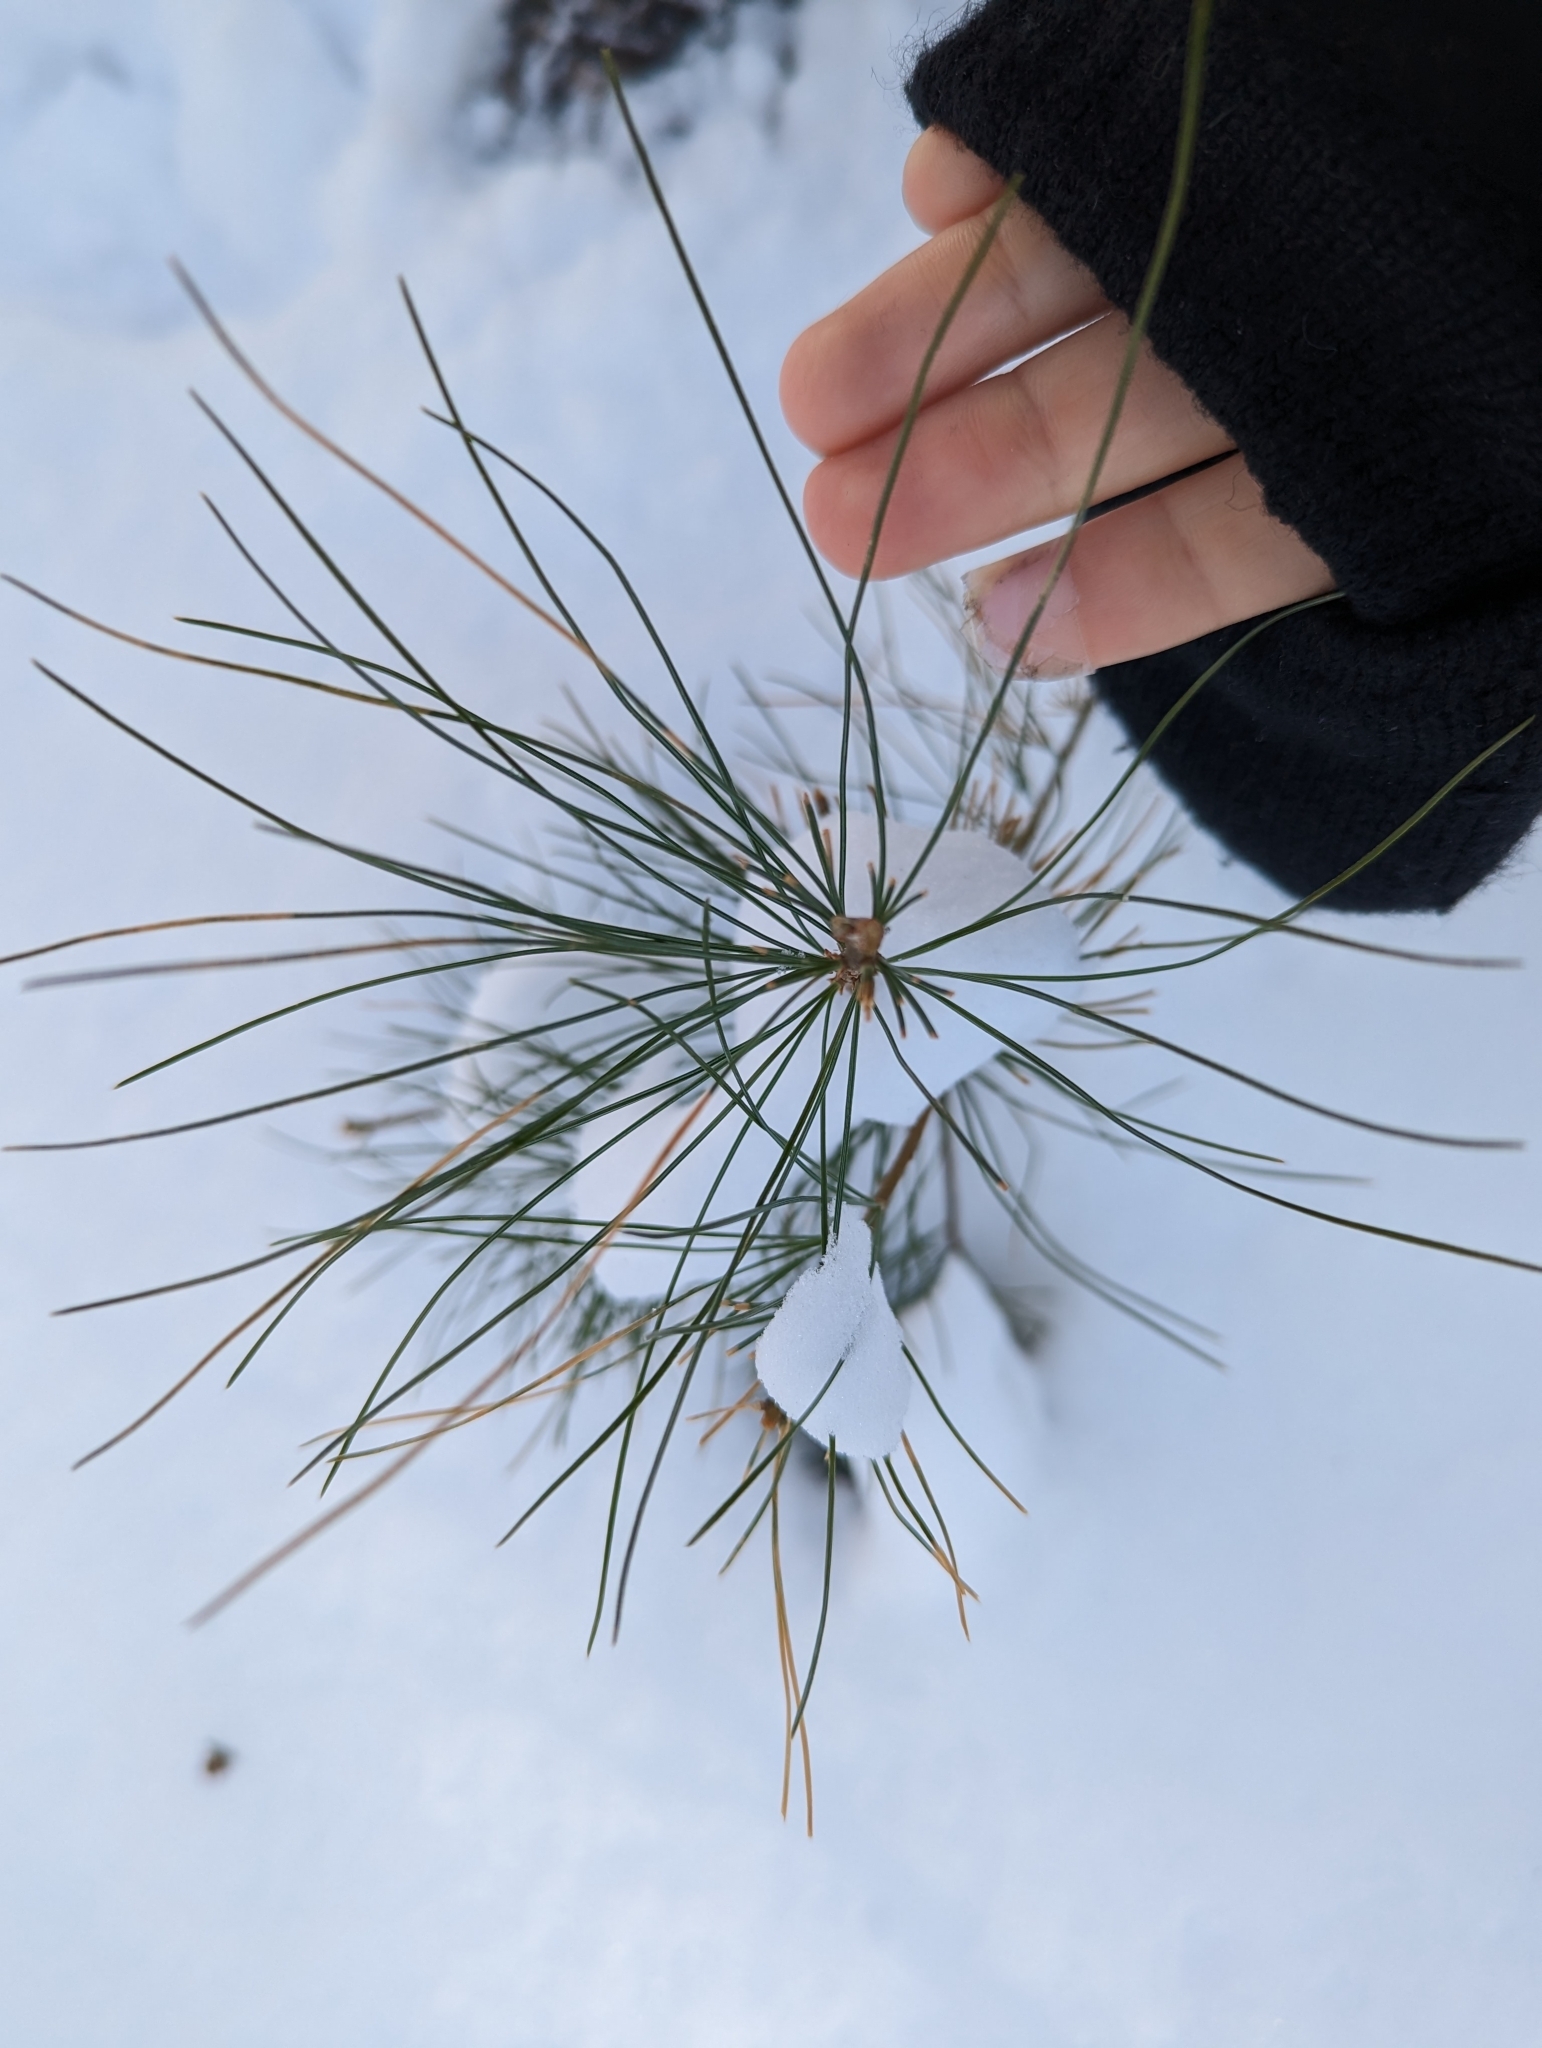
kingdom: Plantae
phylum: Tracheophyta
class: Pinopsida
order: Pinales
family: Pinaceae
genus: Pinus
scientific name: Pinus strobus
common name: Weymouth pine
